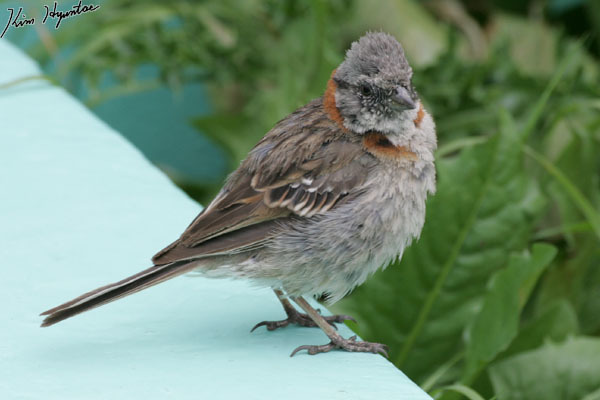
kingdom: Animalia
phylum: Chordata
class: Aves
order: Passeriformes
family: Passerellidae
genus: Zonotrichia
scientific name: Zonotrichia capensis
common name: Rufous-collared sparrow
